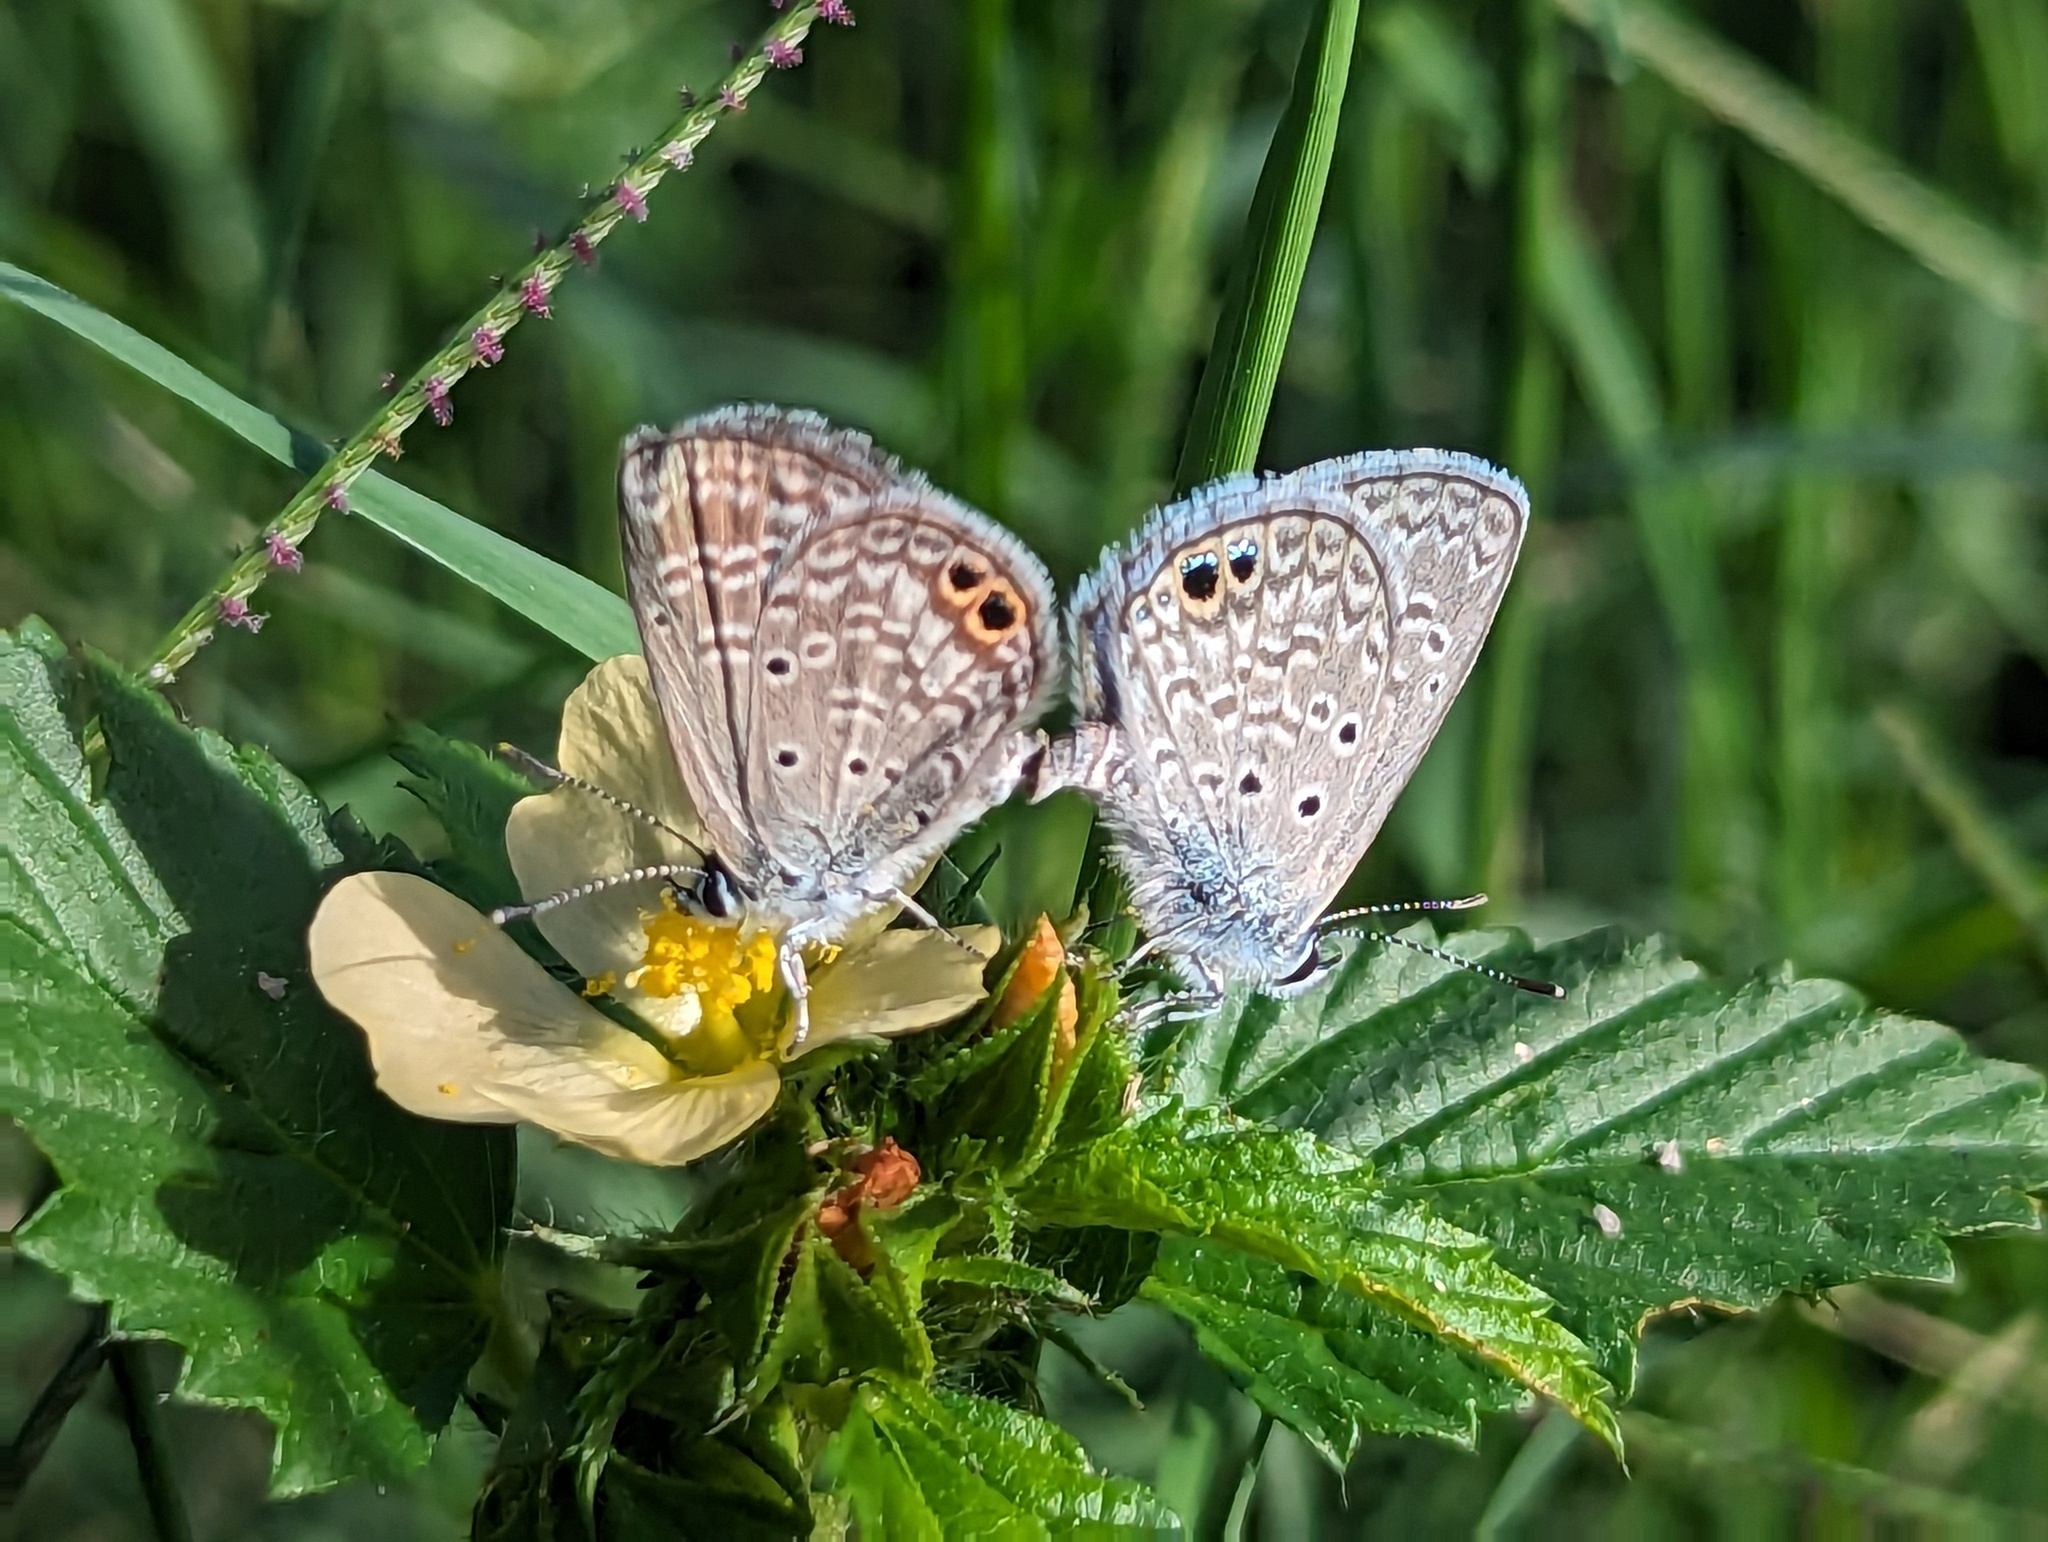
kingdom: Animalia
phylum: Arthropoda
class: Insecta
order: Lepidoptera
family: Lycaenidae
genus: Hemiargus
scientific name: Hemiargus ceraunus
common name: Ceraunus blue
